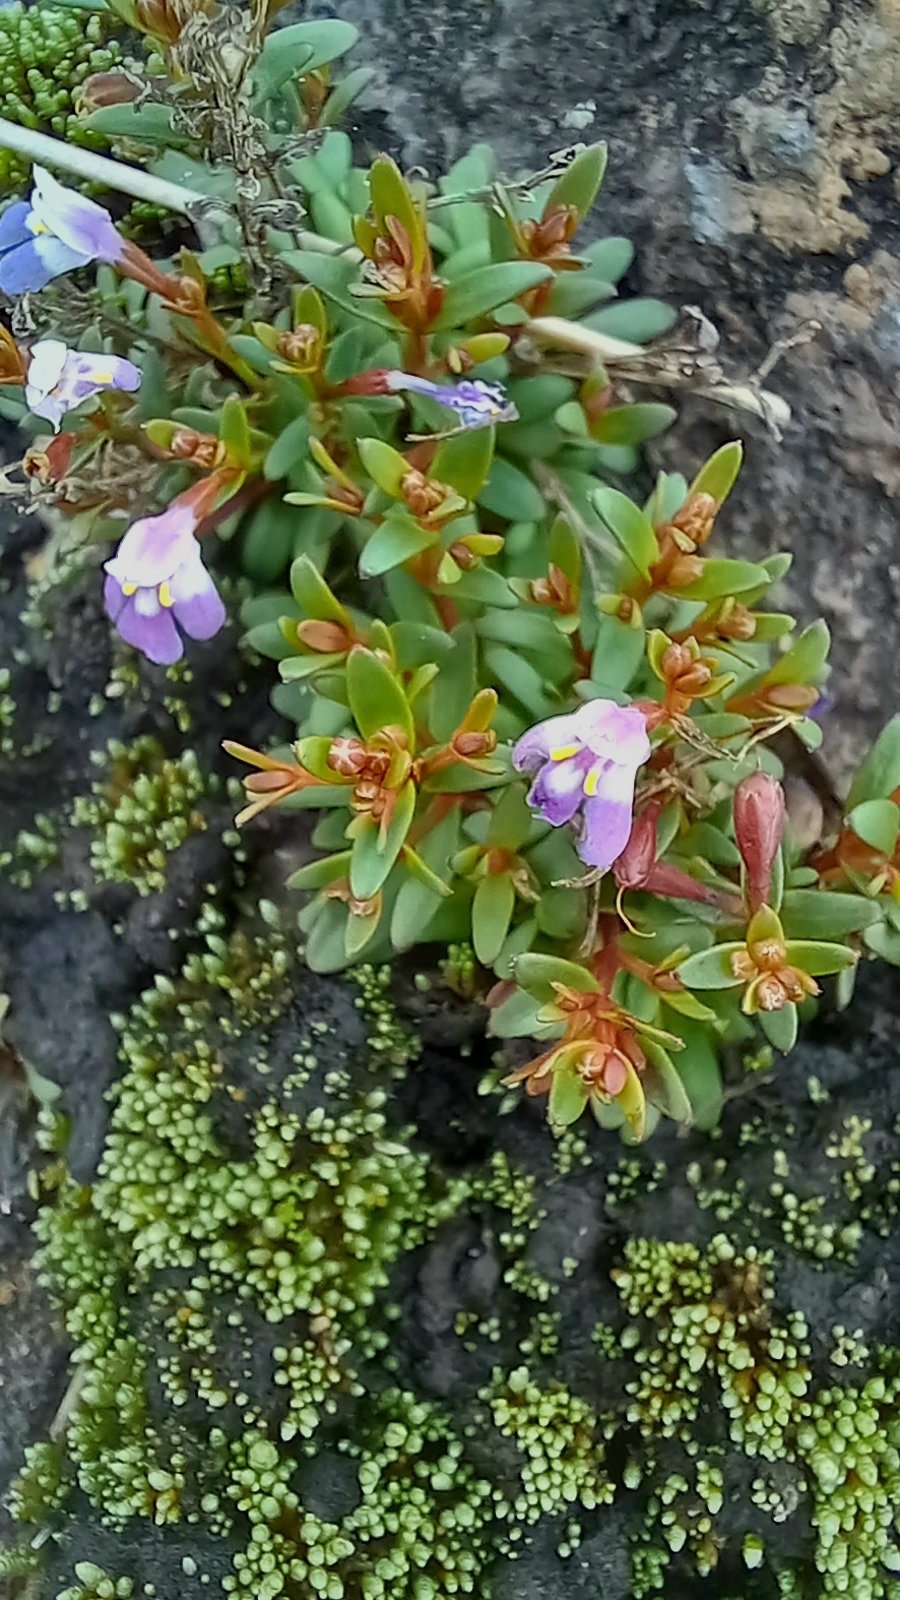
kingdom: Plantae
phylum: Tracheophyta
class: Magnoliopsida
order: Lamiales
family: Linderniaceae
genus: Linderniella
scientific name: Linderniella pulchella
